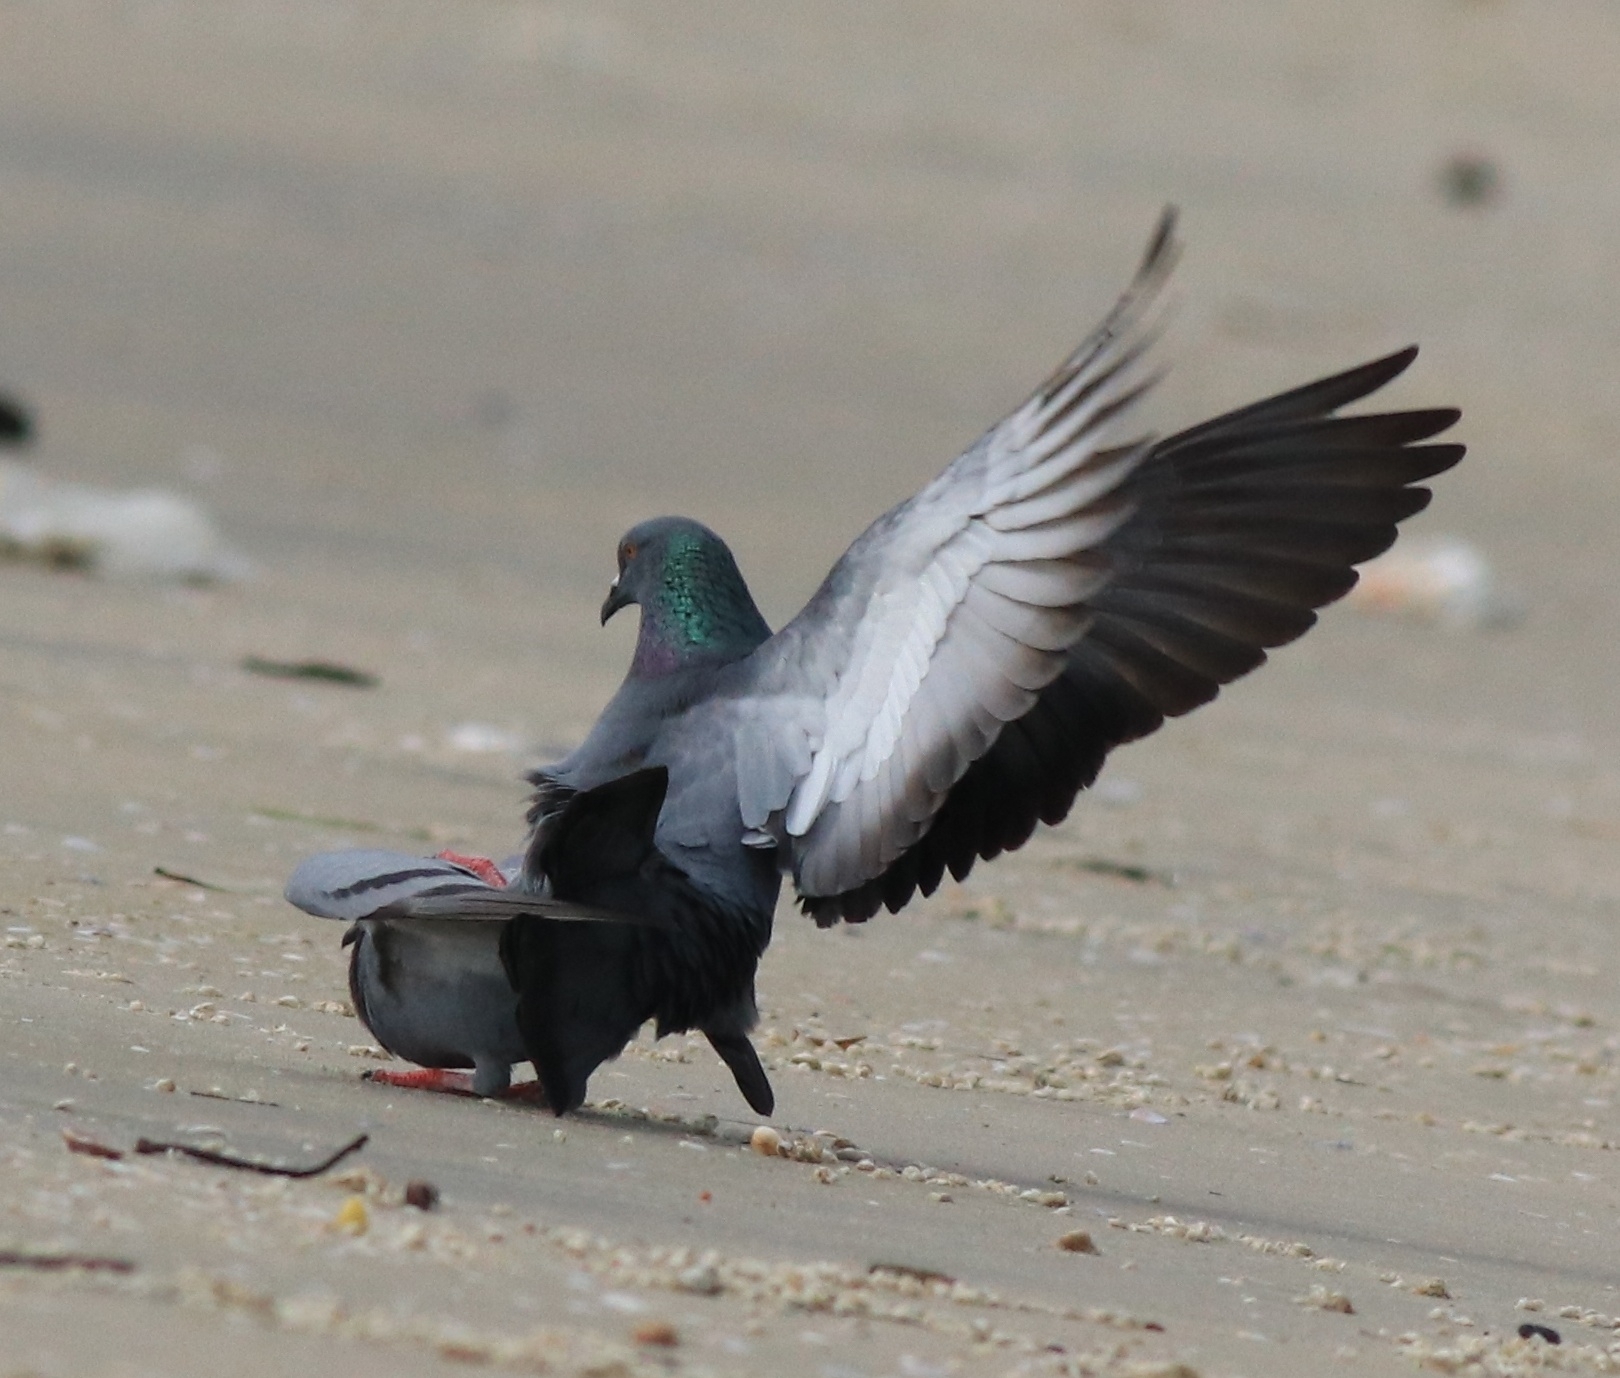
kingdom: Animalia
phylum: Chordata
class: Aves
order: Columbiformes
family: Columbidae
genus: Columba
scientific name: Columba livia
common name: Rock pigeon
